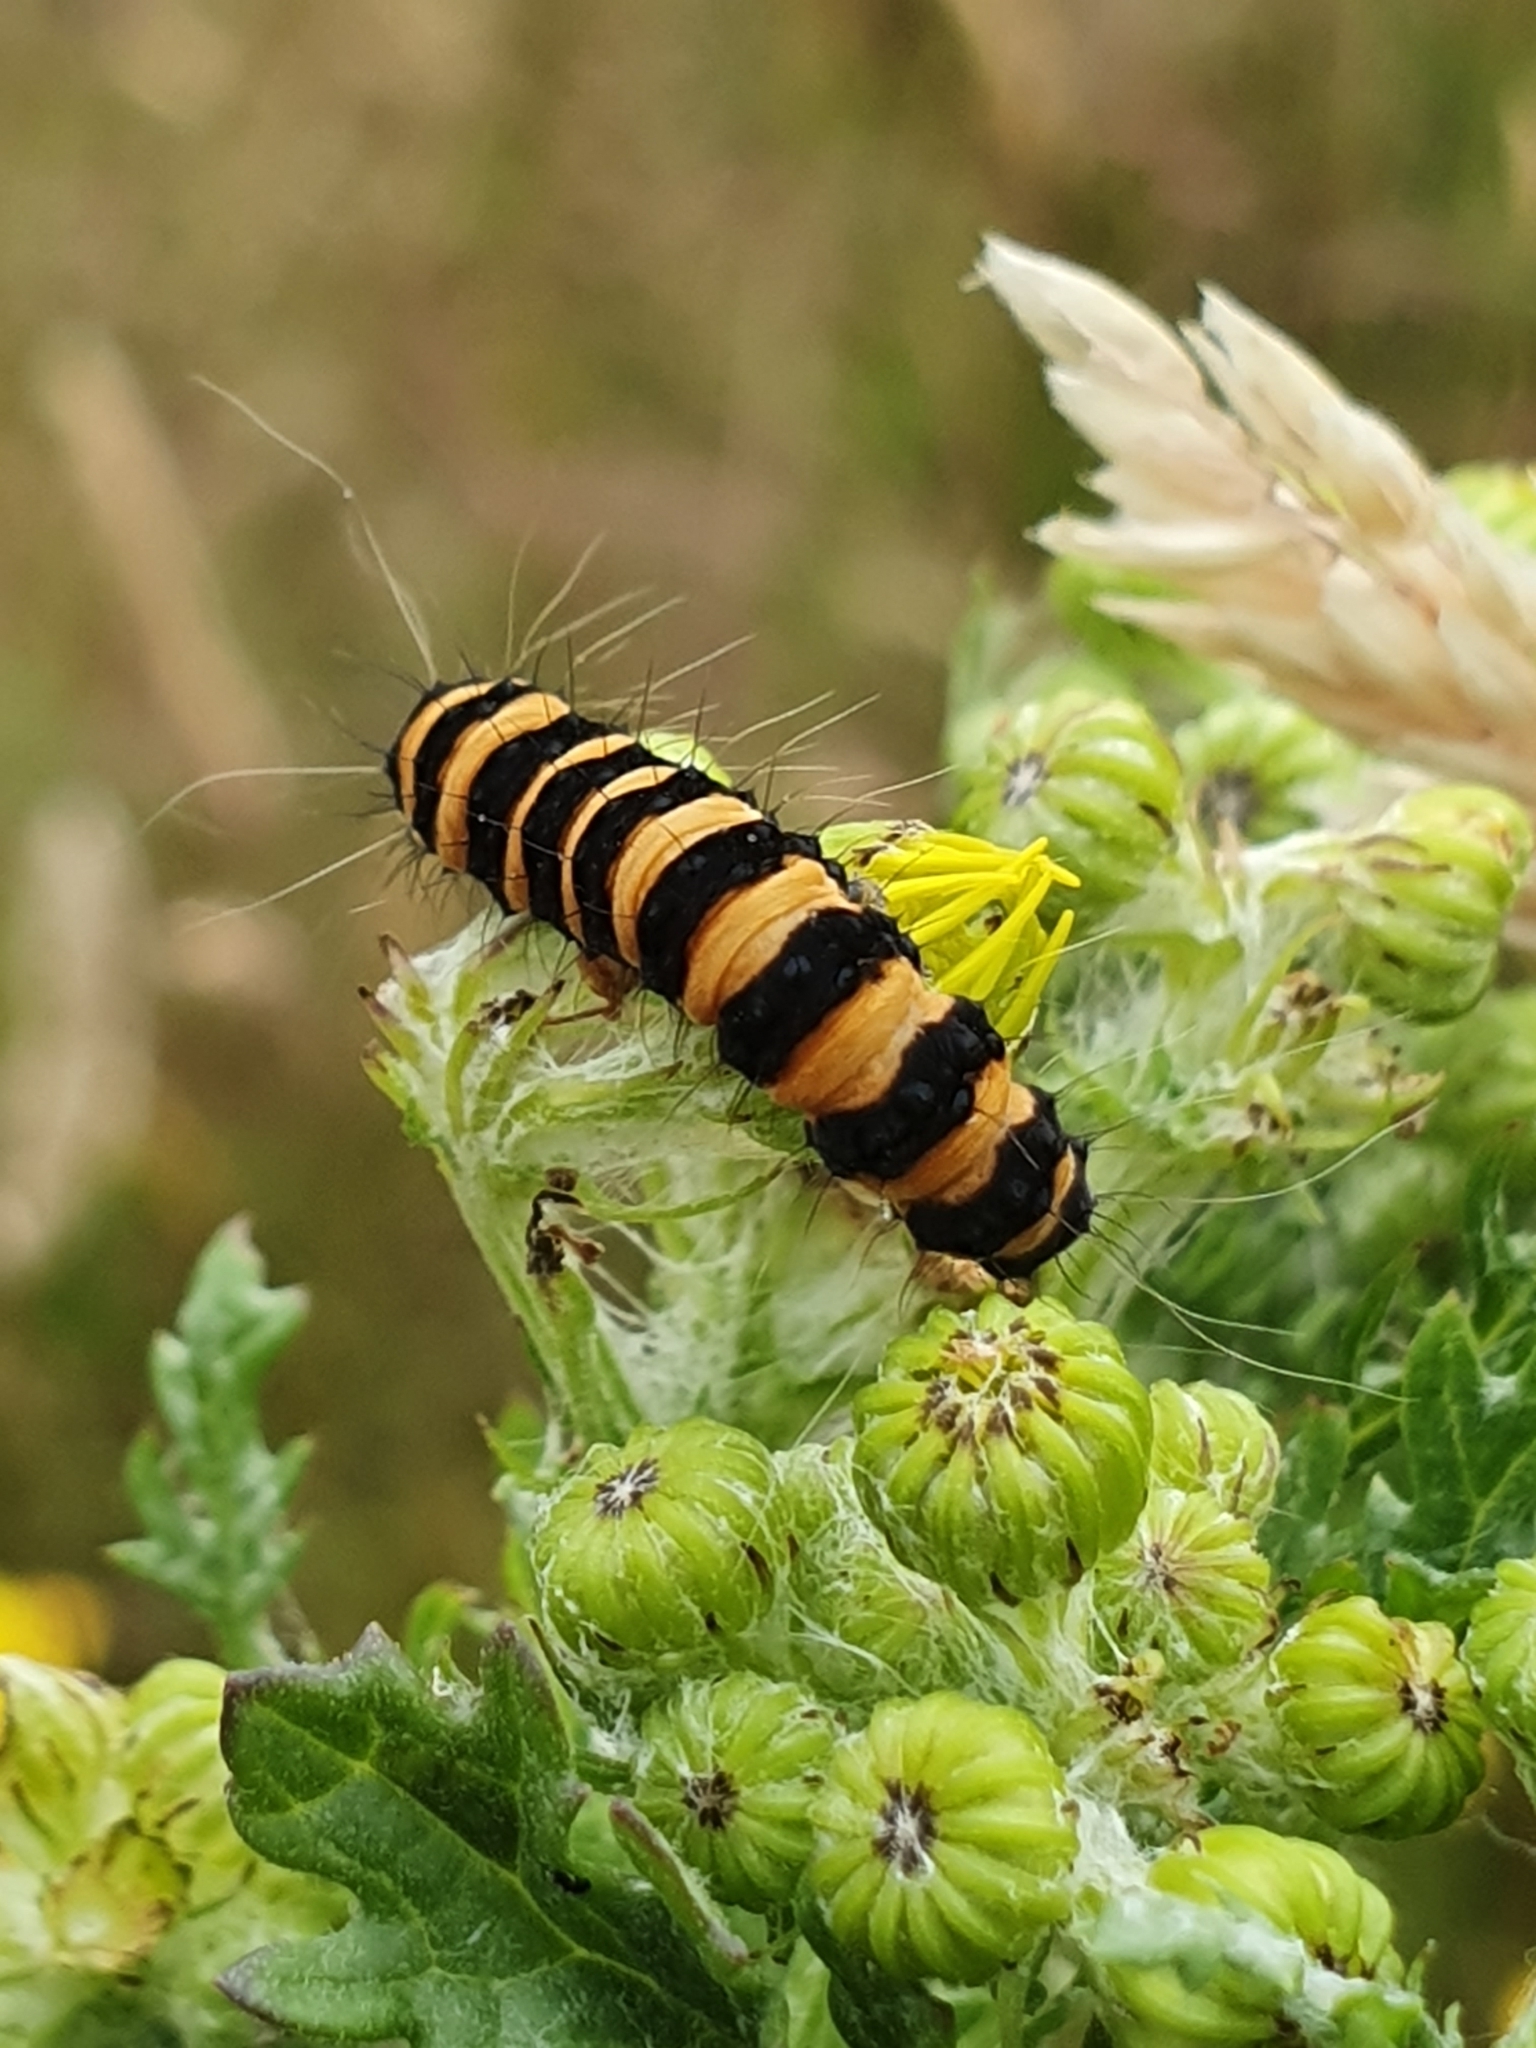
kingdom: Animalia
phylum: Arthropoda
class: Insecta
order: Lepidoptera
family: Erebidae
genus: Tyria
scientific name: Tyria jacobaeae
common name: Cinnabar
